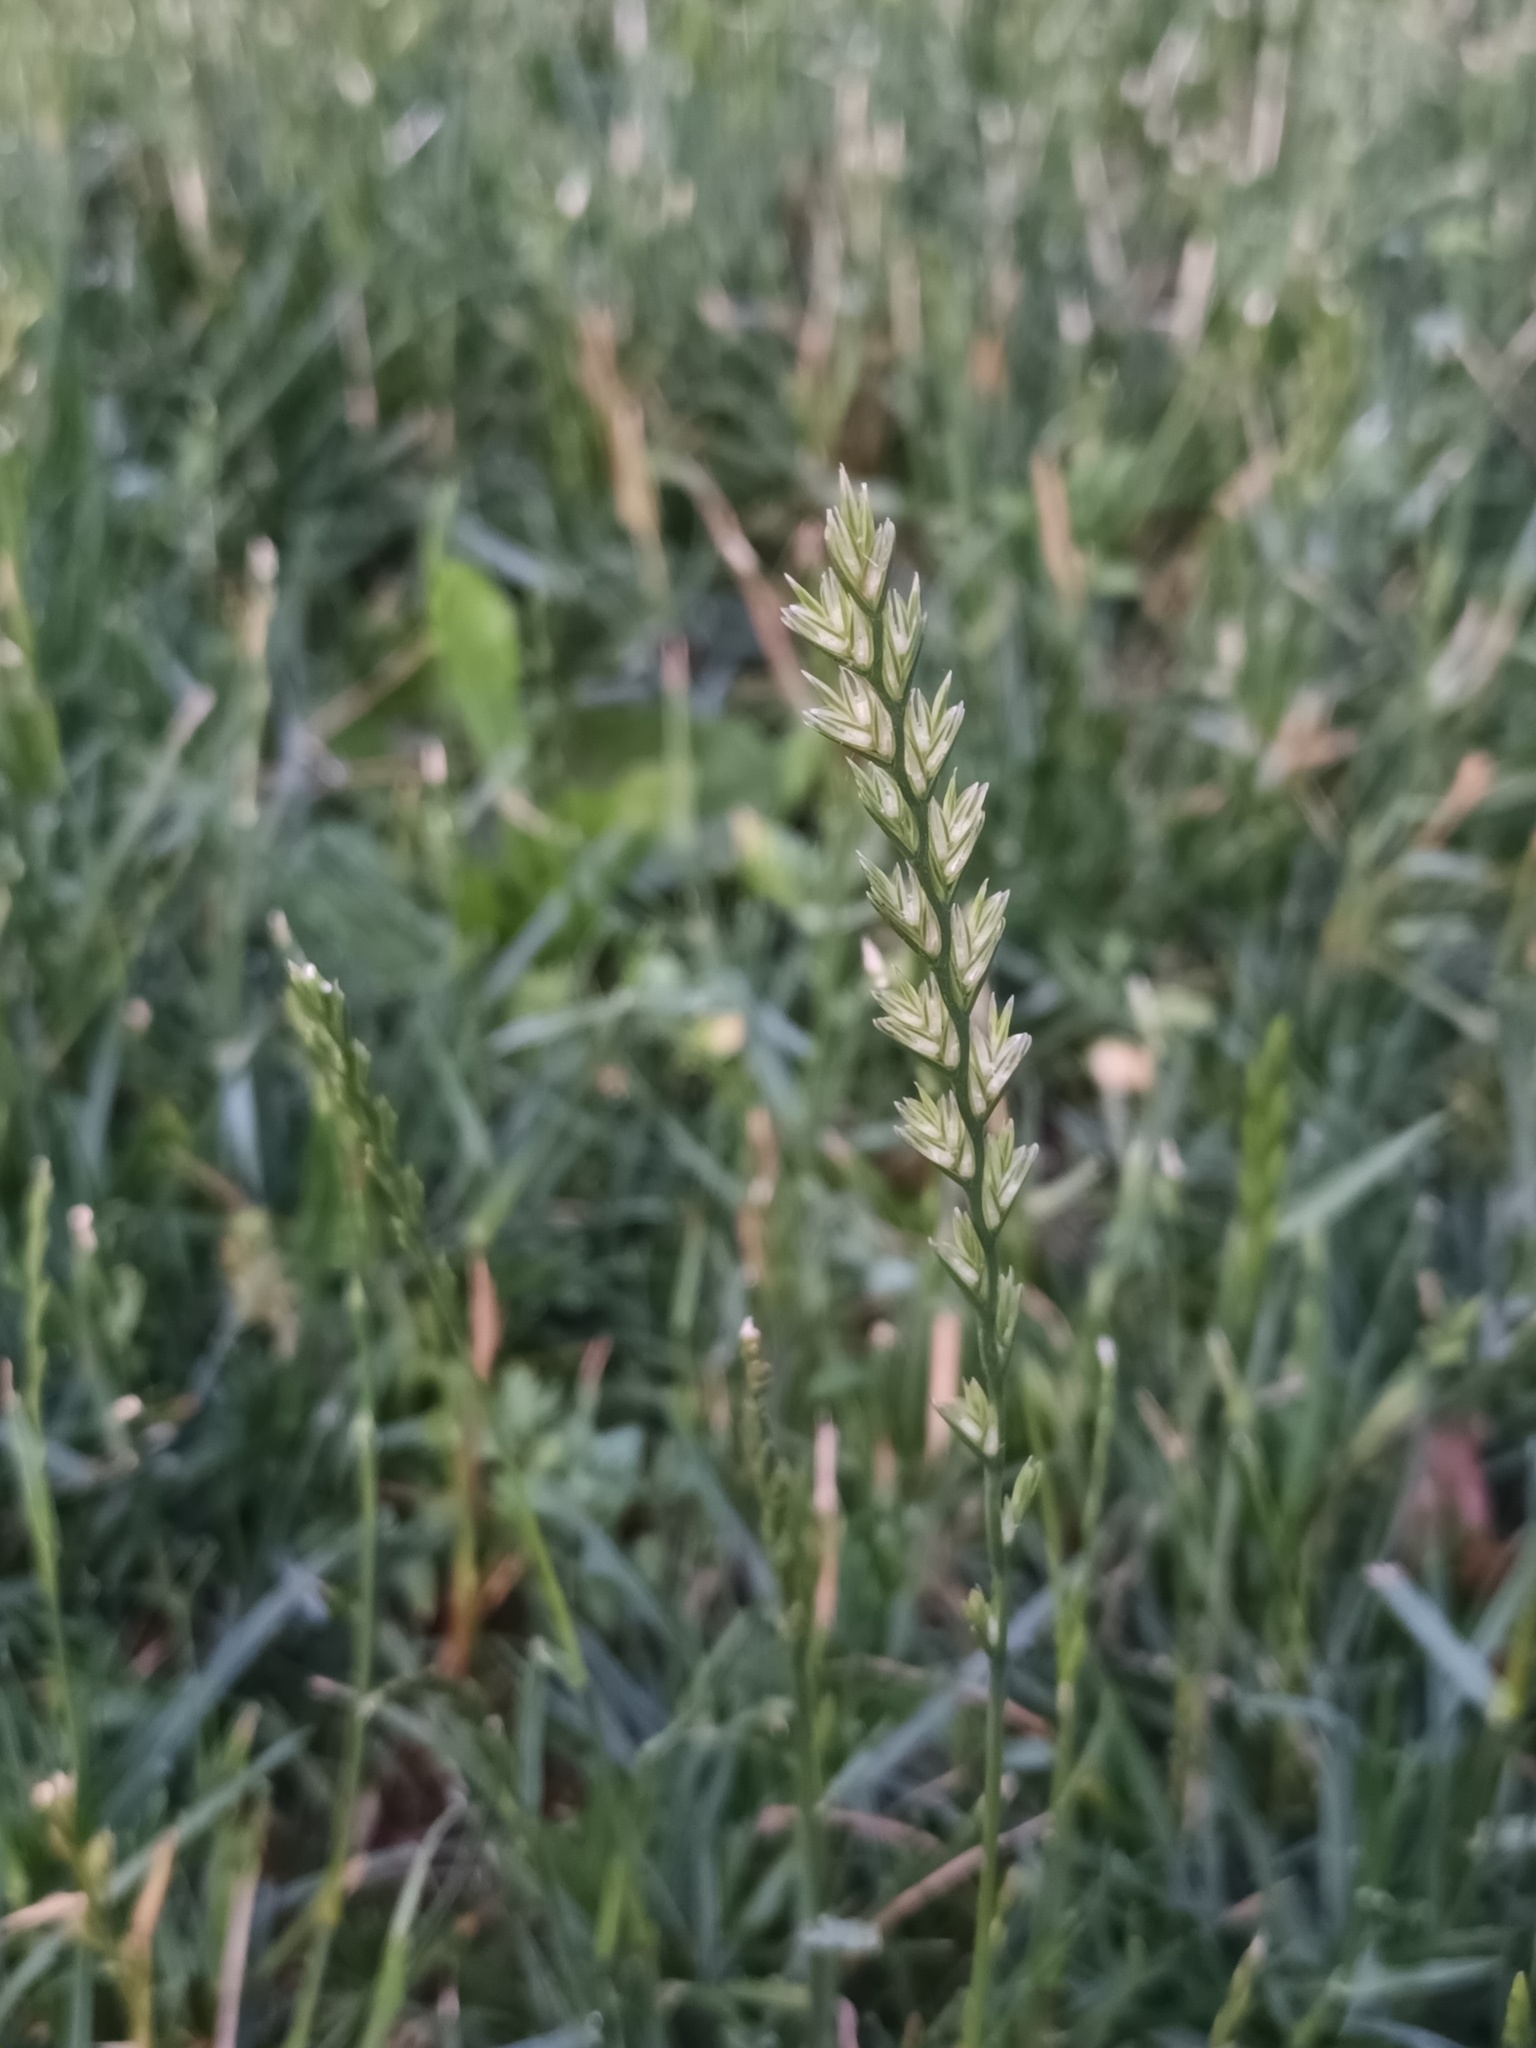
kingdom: Plantae
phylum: Tracheophyta
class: Liliopsida
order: Poales
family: Poaceae
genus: Lolium
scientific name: Lolium perenne
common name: Perennial ryegrass
